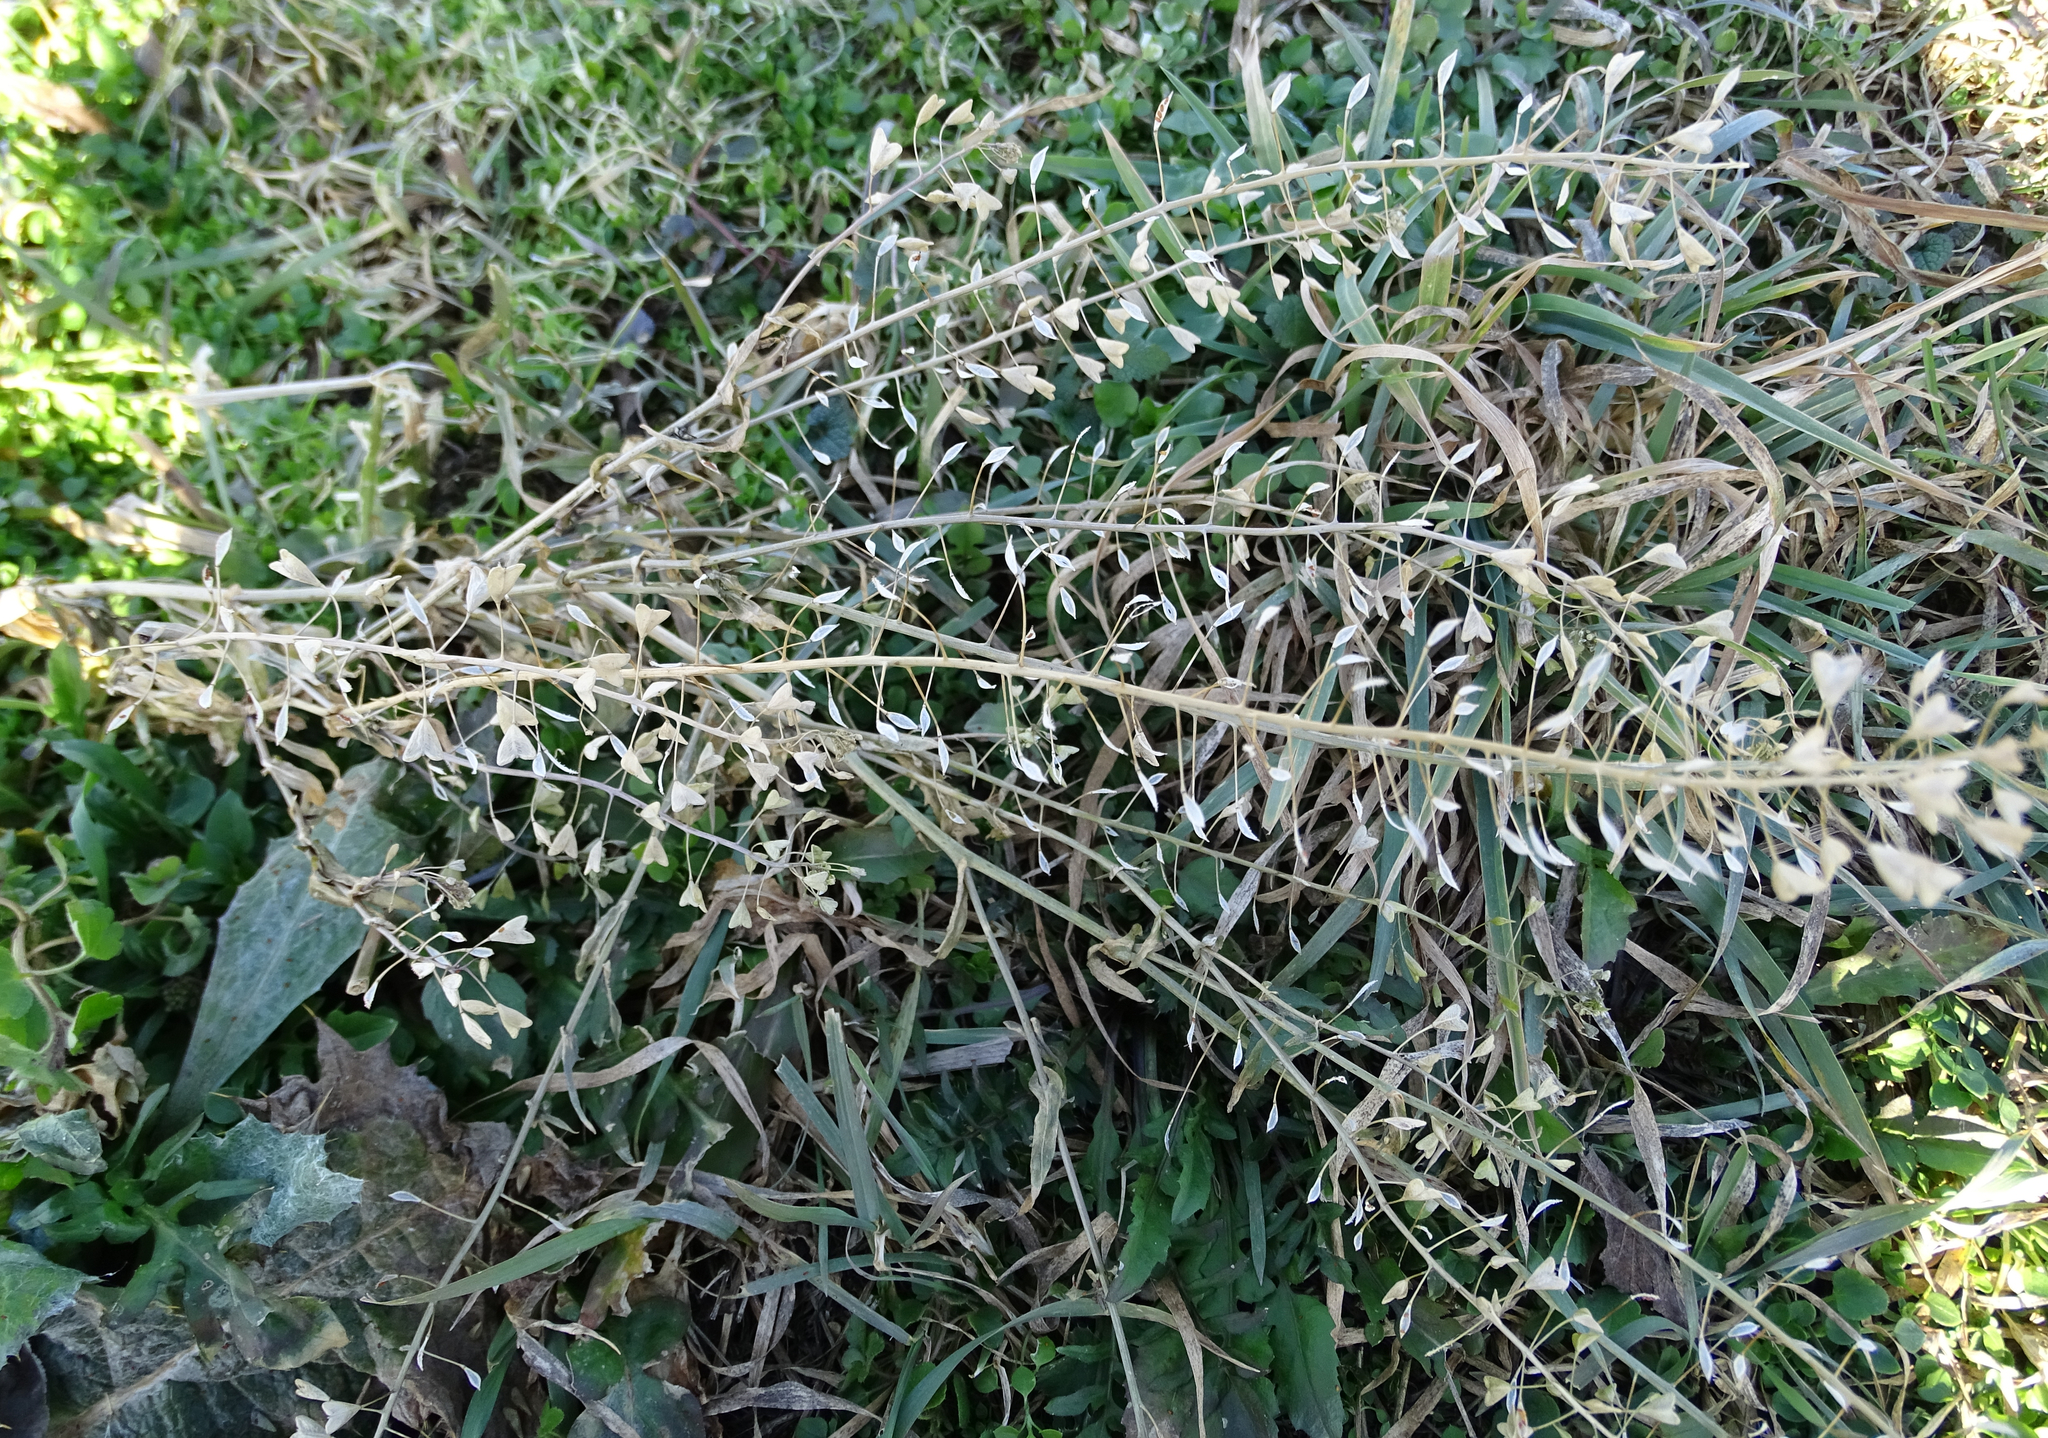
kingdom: Plantae
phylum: Tracheophyta
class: Magnoliopsida
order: Brassicales
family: Brassicaceae
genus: Capsella
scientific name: Capsella bursa-pastoris
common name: Shepherd's purse
